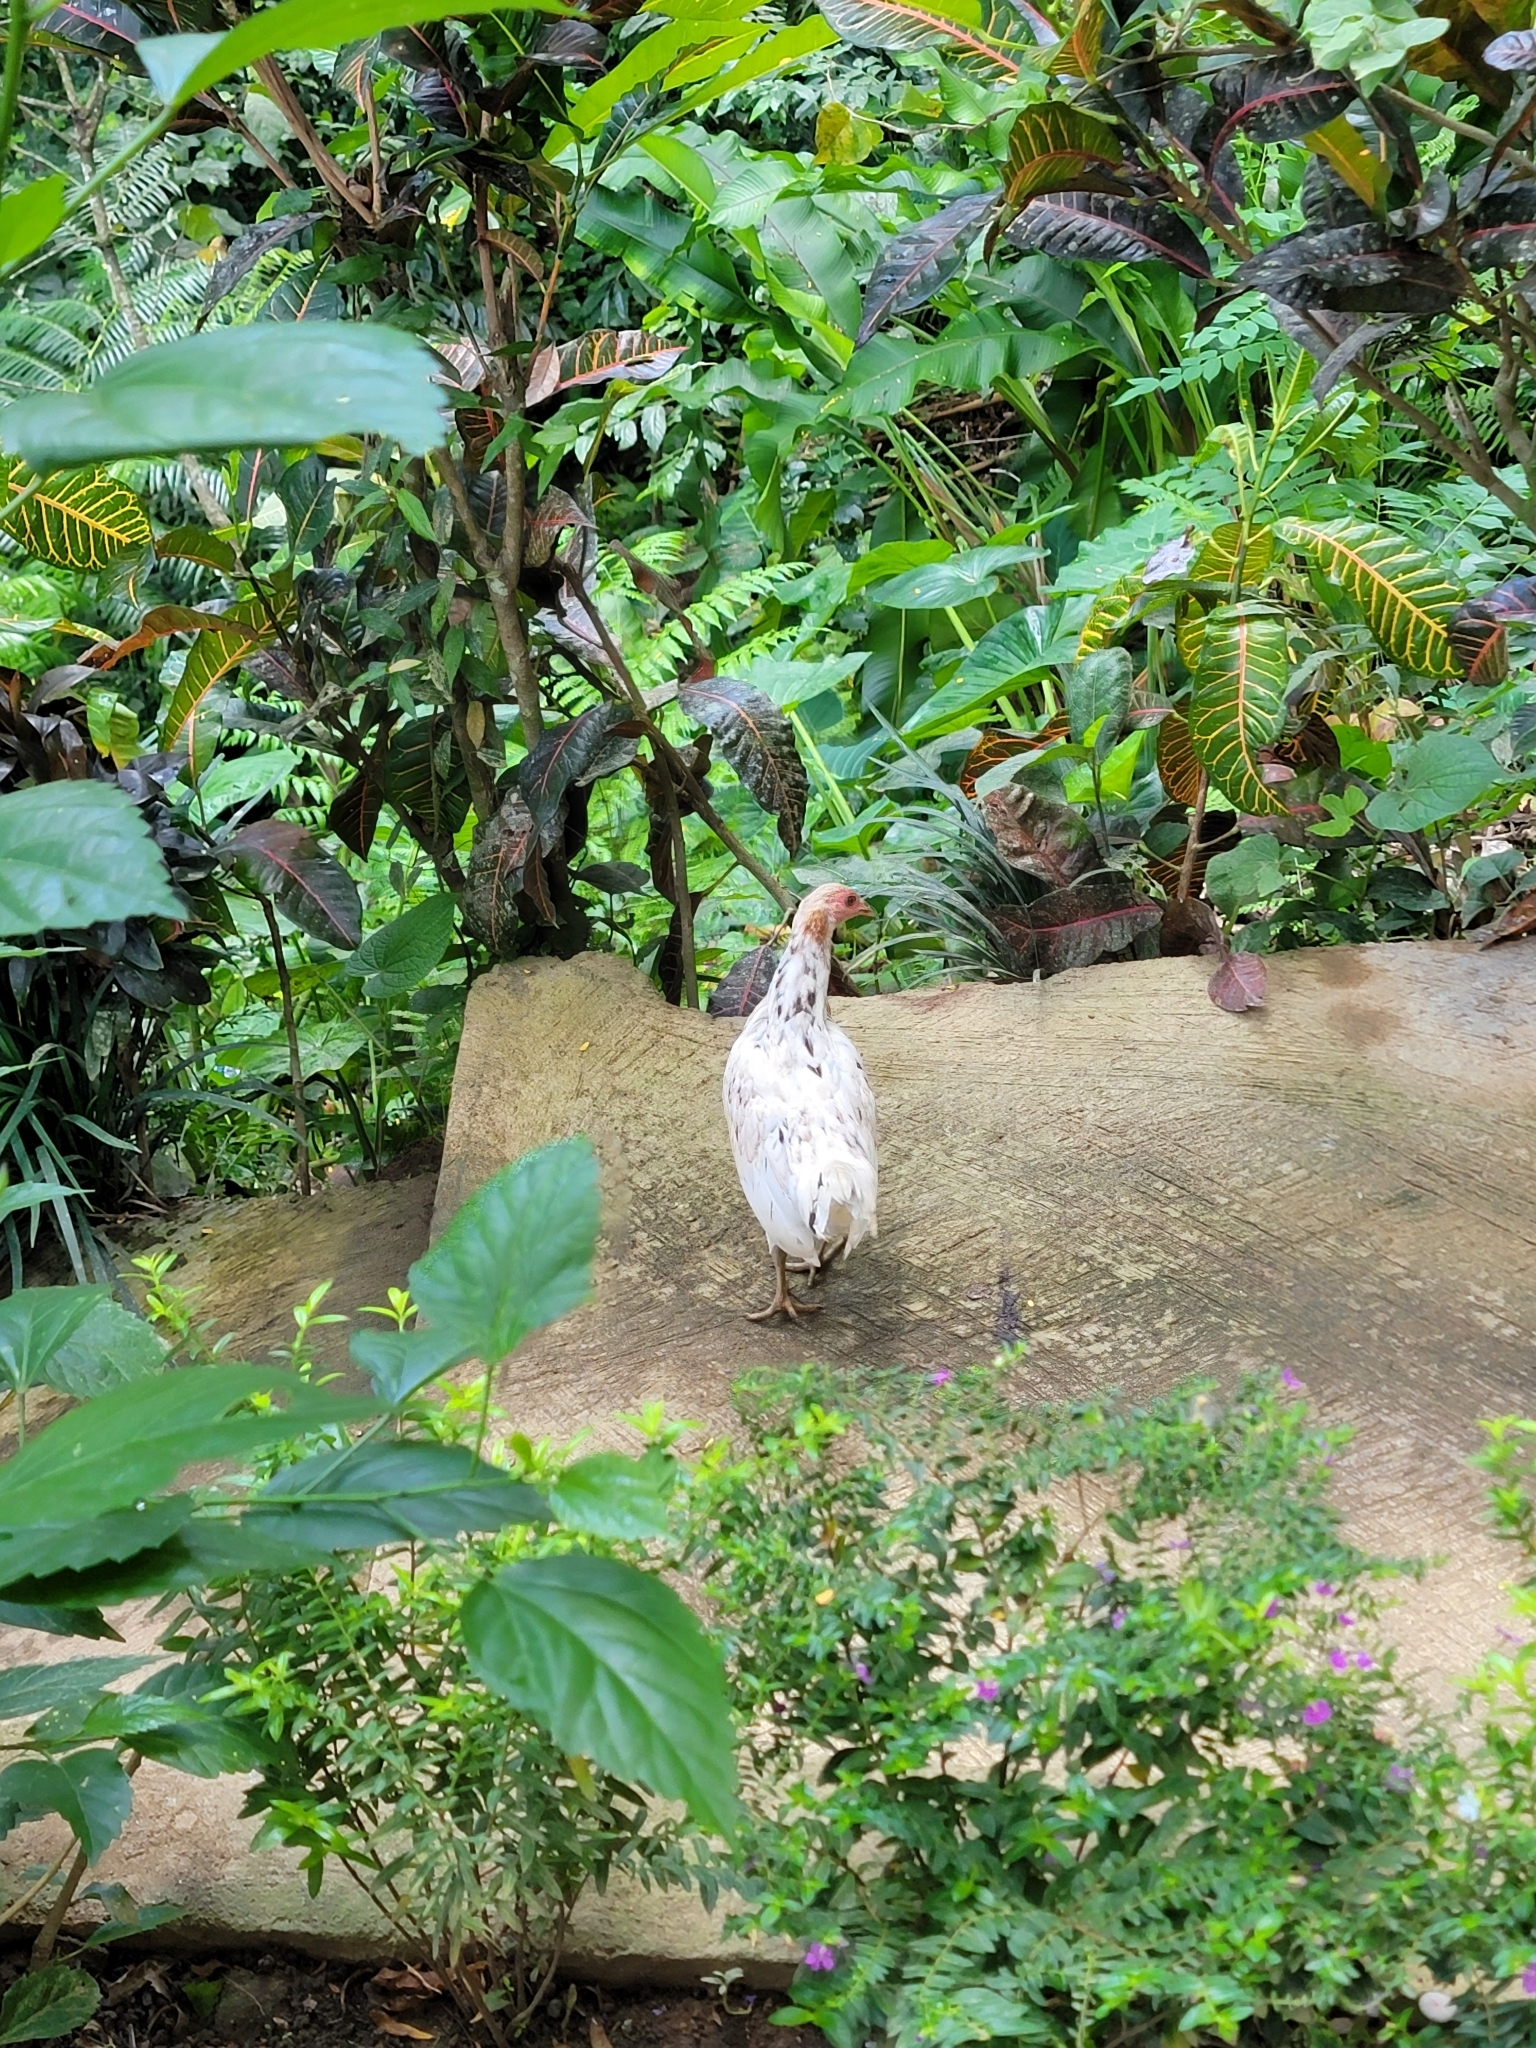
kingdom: Animalia
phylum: Chordata
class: Aves
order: Galliformes
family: Phasianidae
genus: Gallus
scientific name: Gallus gallus
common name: Red junglefowl
